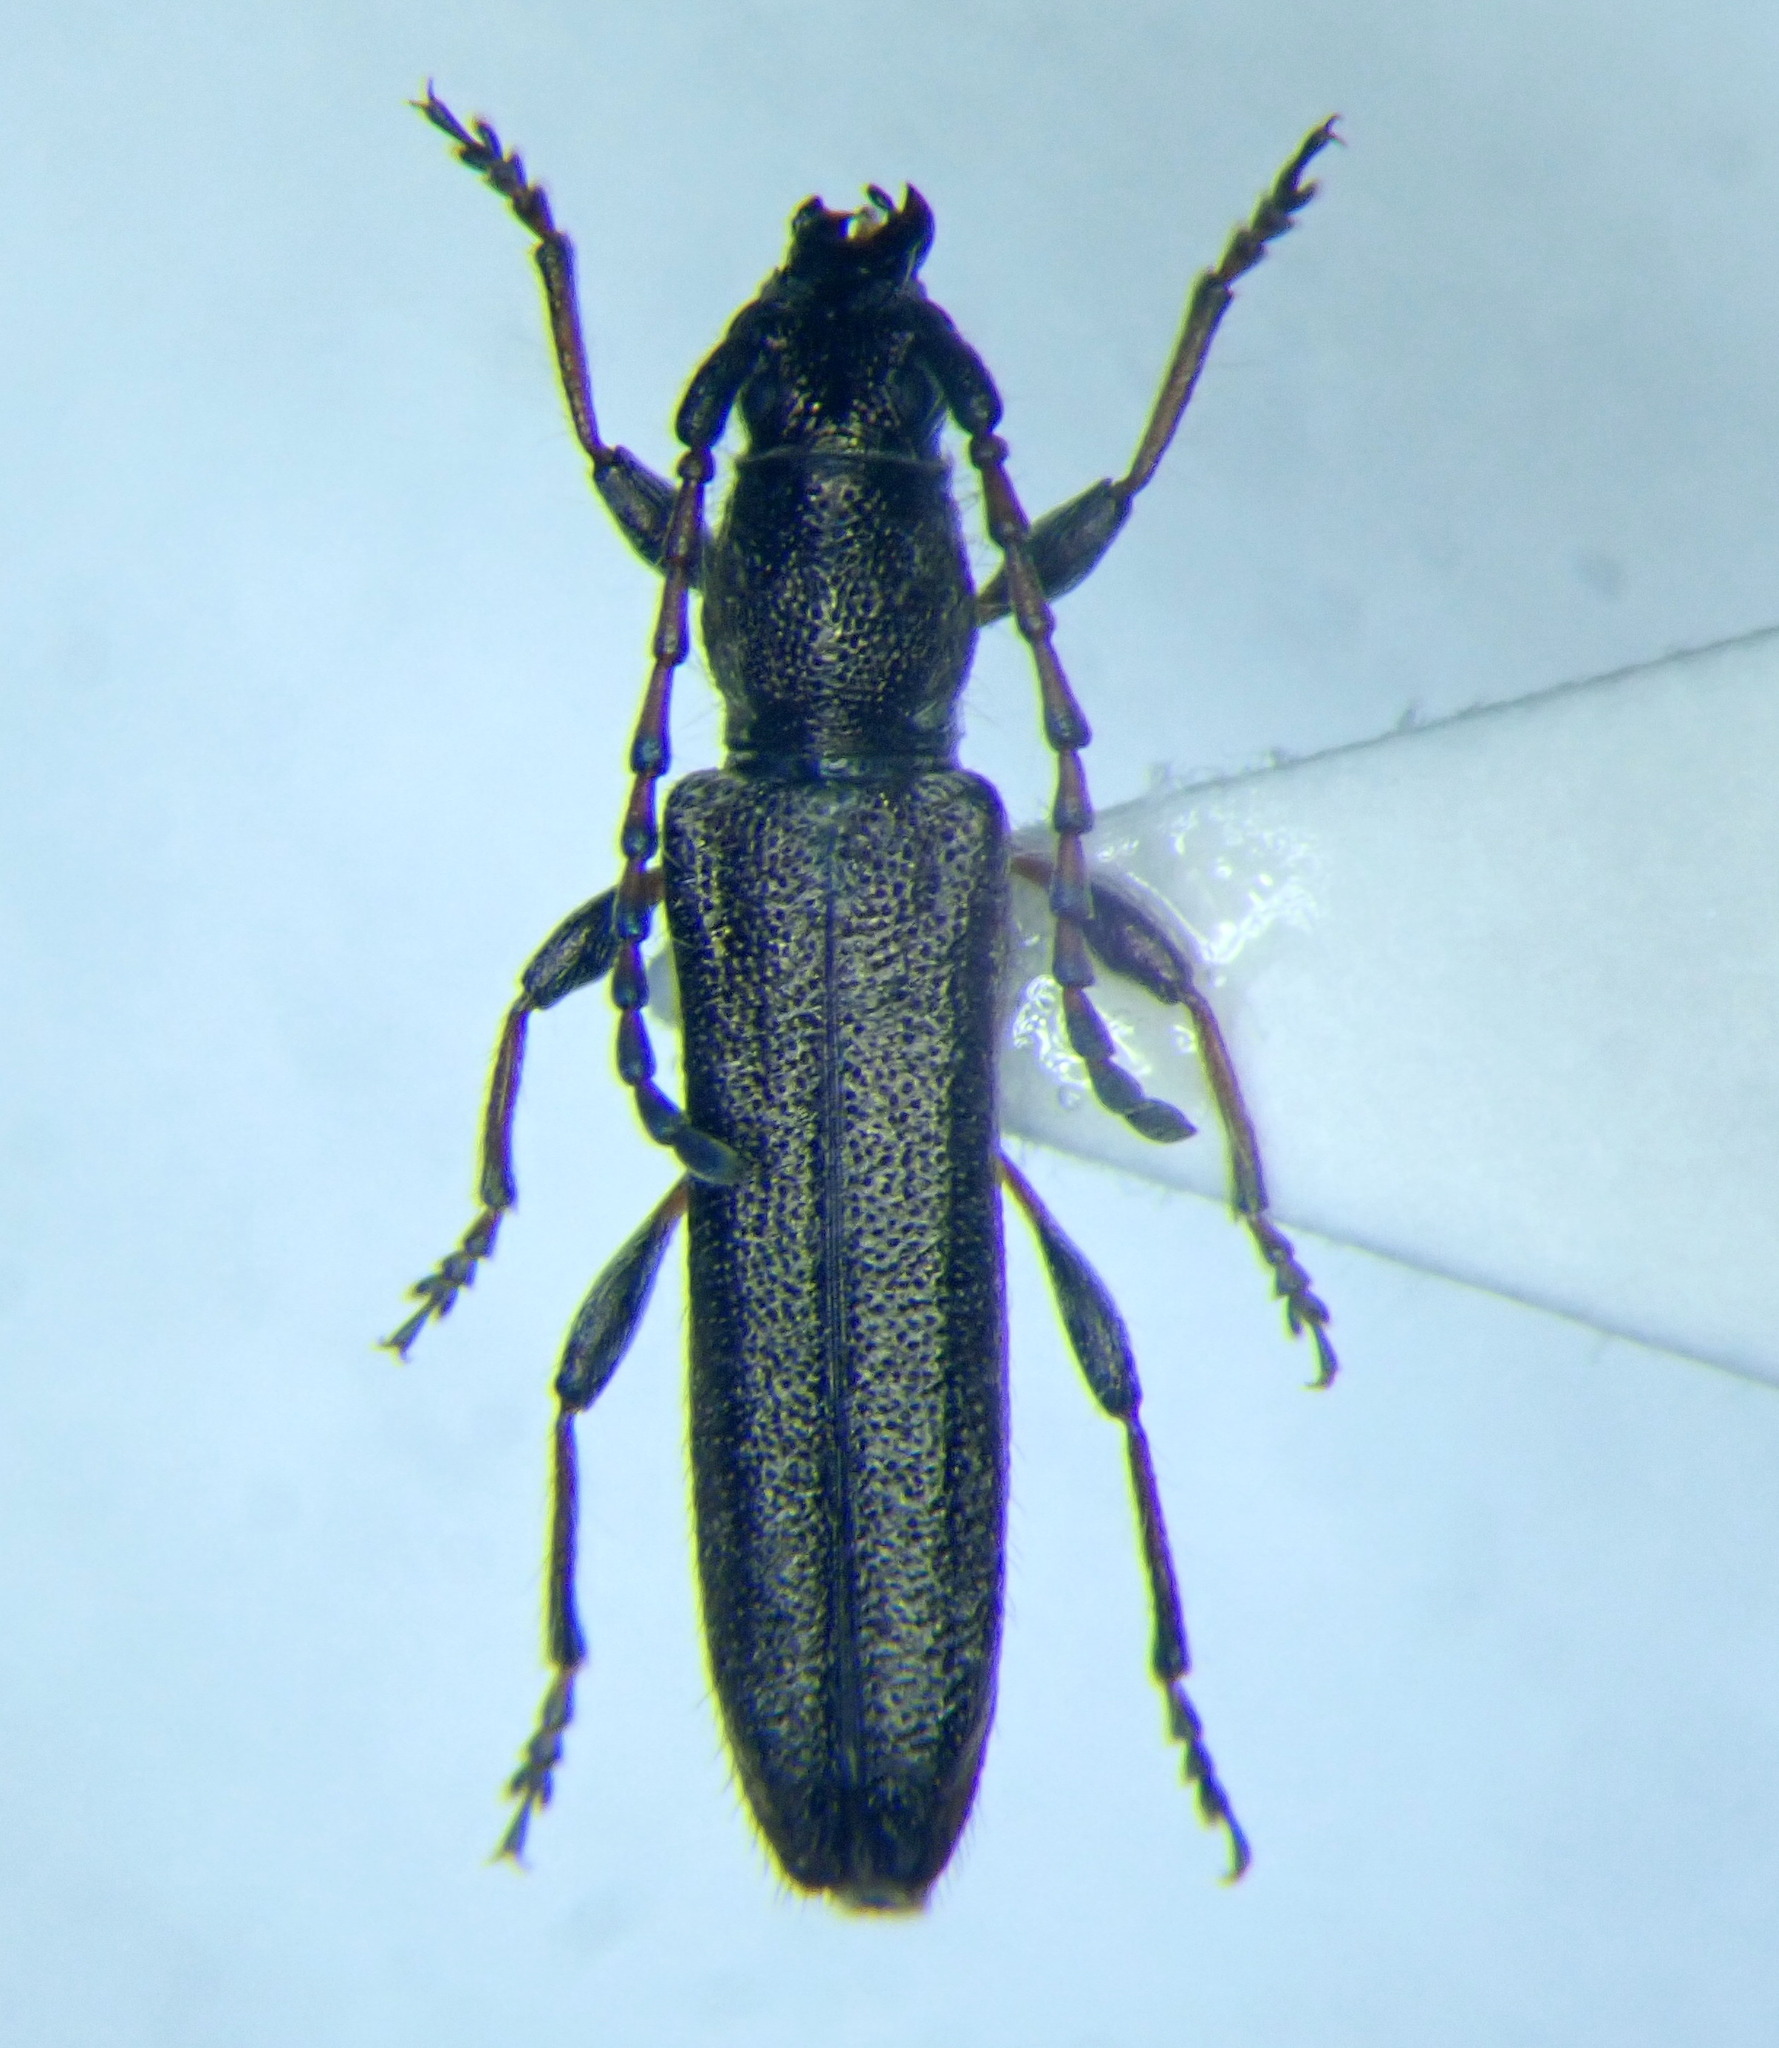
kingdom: Animalia
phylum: Arthropoda
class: Insecta
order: Coleoptera
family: Cerambycidae
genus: Deilus
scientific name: Deilus fugax
